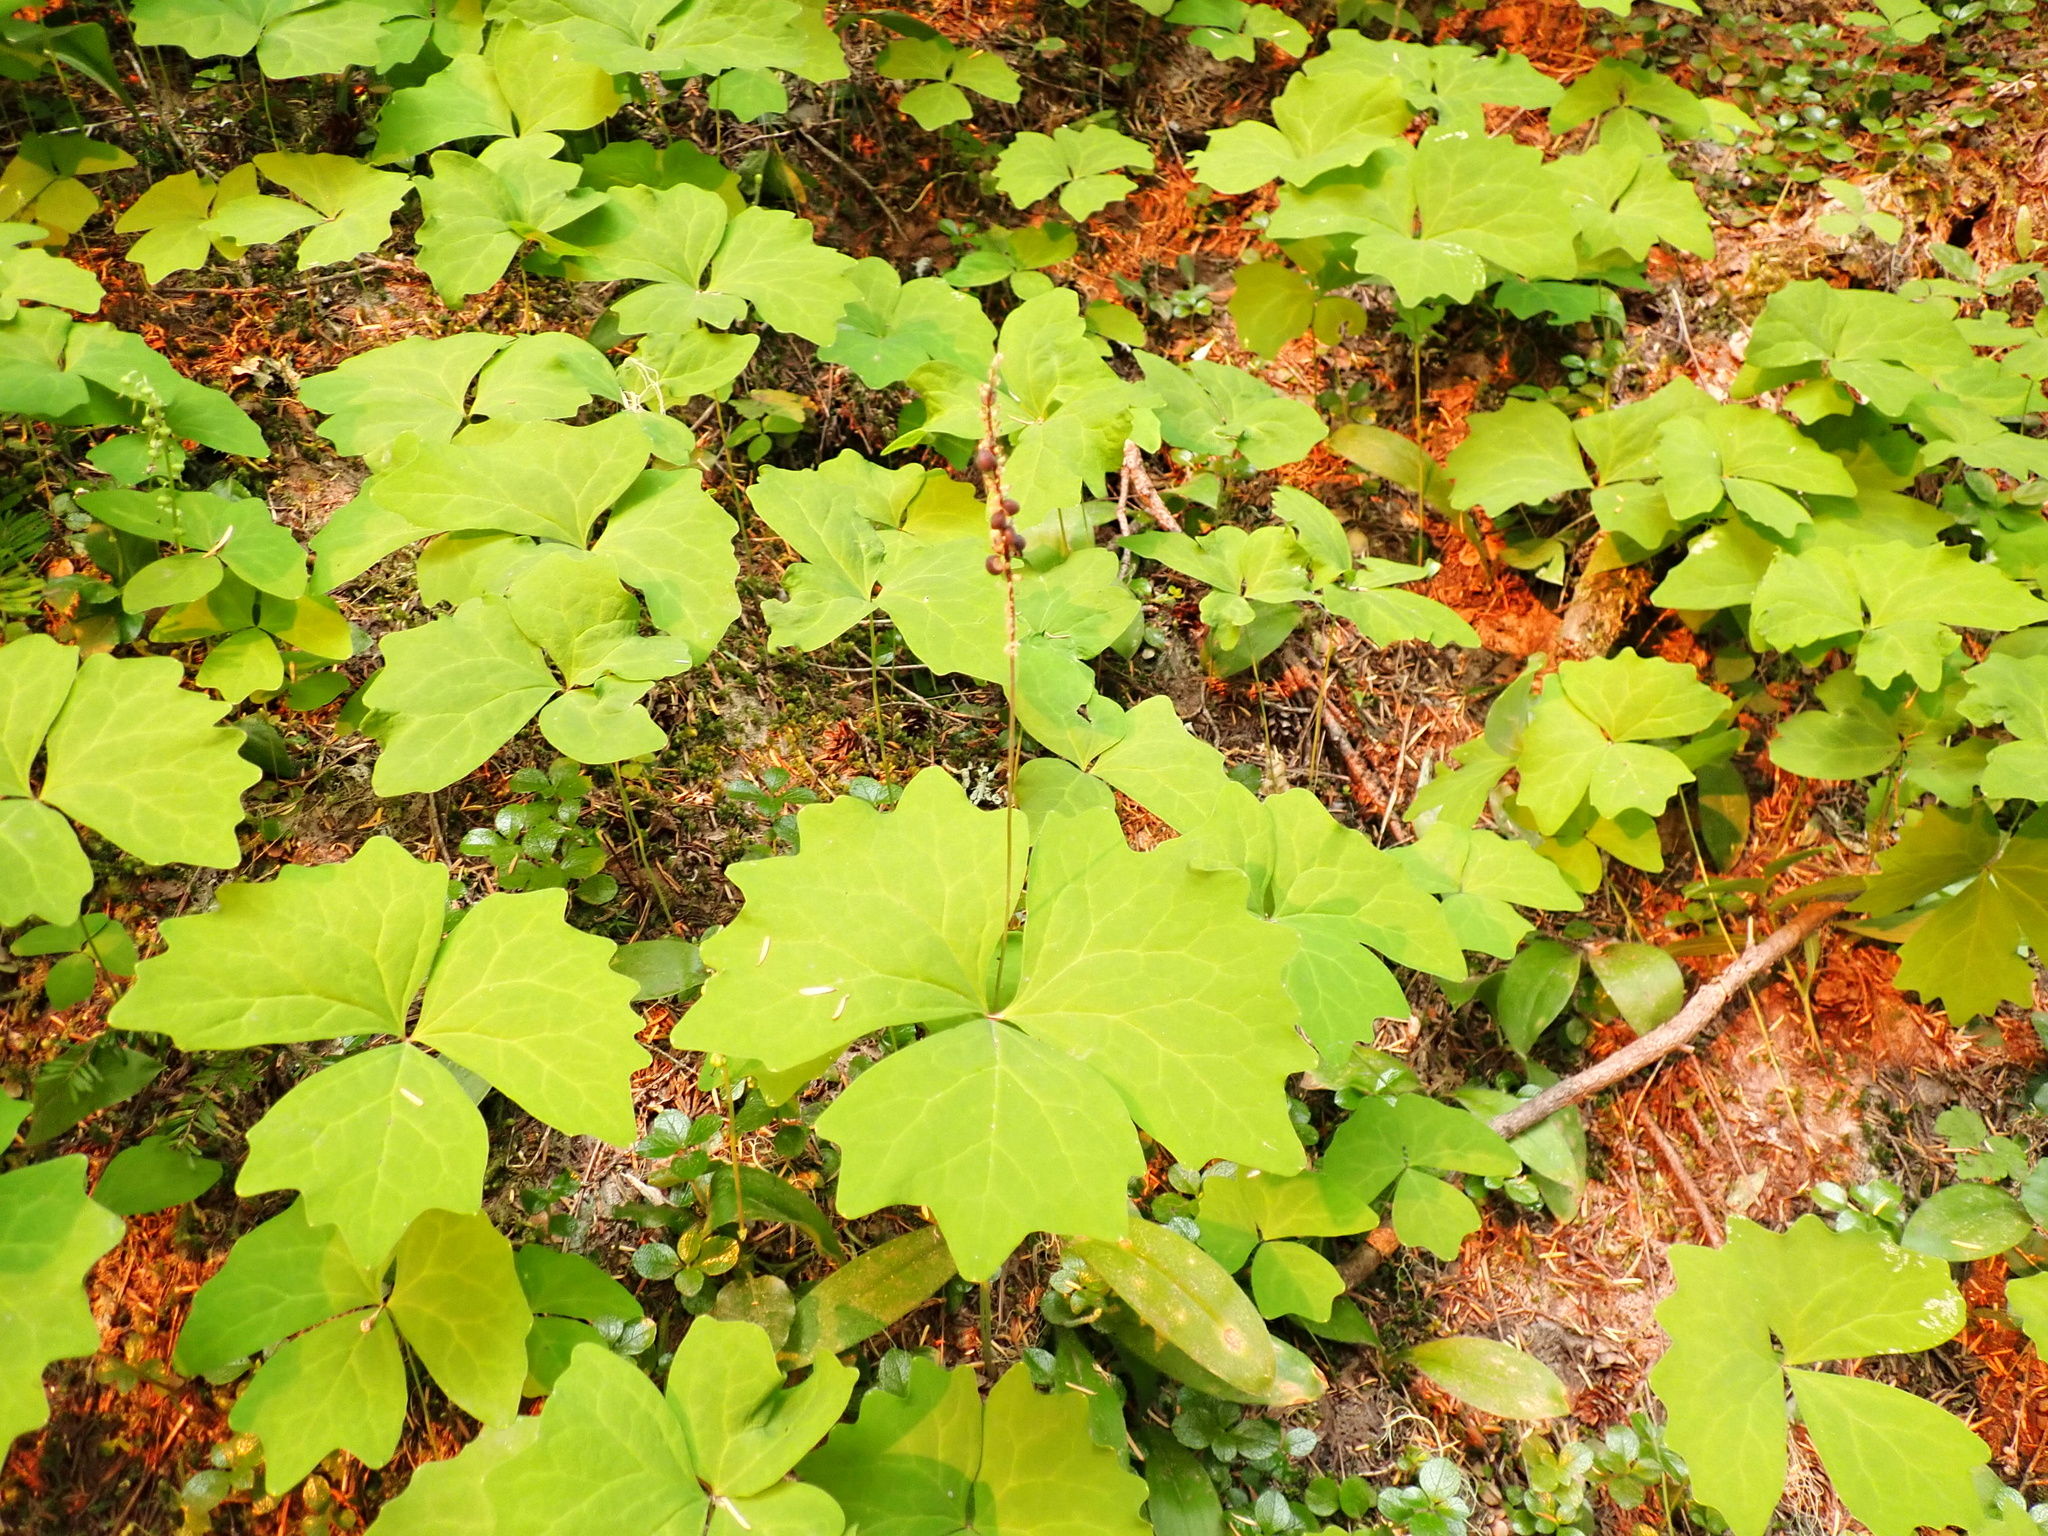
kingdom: Plantae
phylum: Tracheophyta
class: Magnoliopsida
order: Ranunculales
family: Berberidaceae
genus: Achlys
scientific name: Achlys triphylla
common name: Vanilla-leaf
